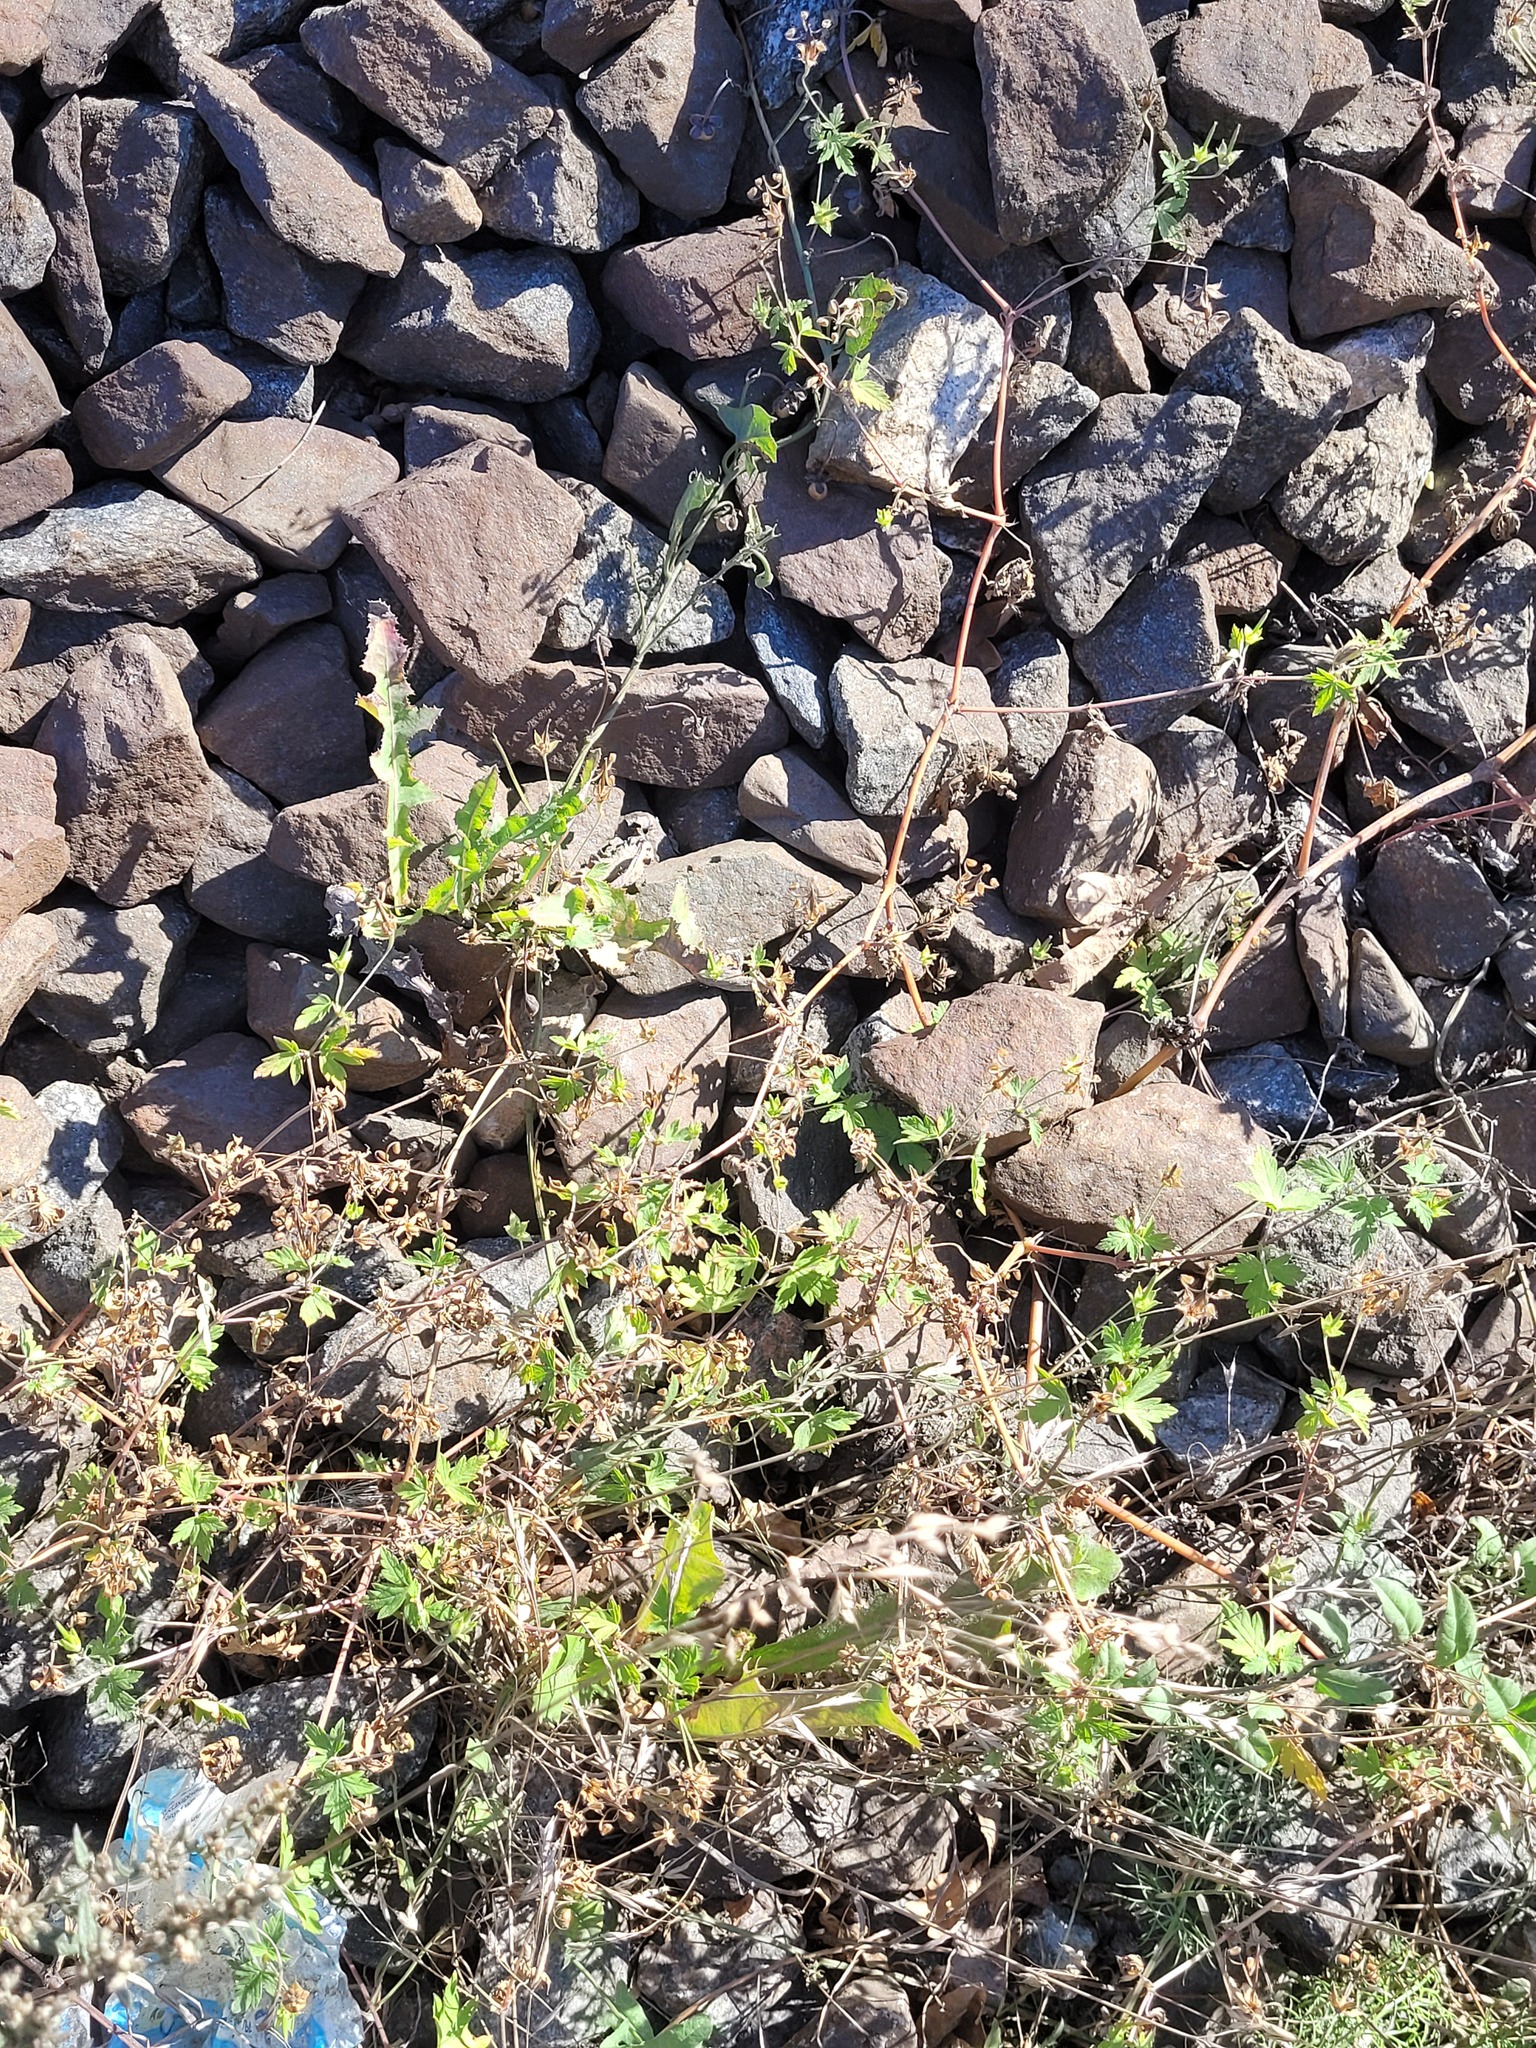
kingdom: Plantae
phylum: Tracheophyta
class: Magnoliopsida
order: Geraniales
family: Geraniaceae
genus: Geranium
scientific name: Geranium sibiricum
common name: Siberian crane's-bill
